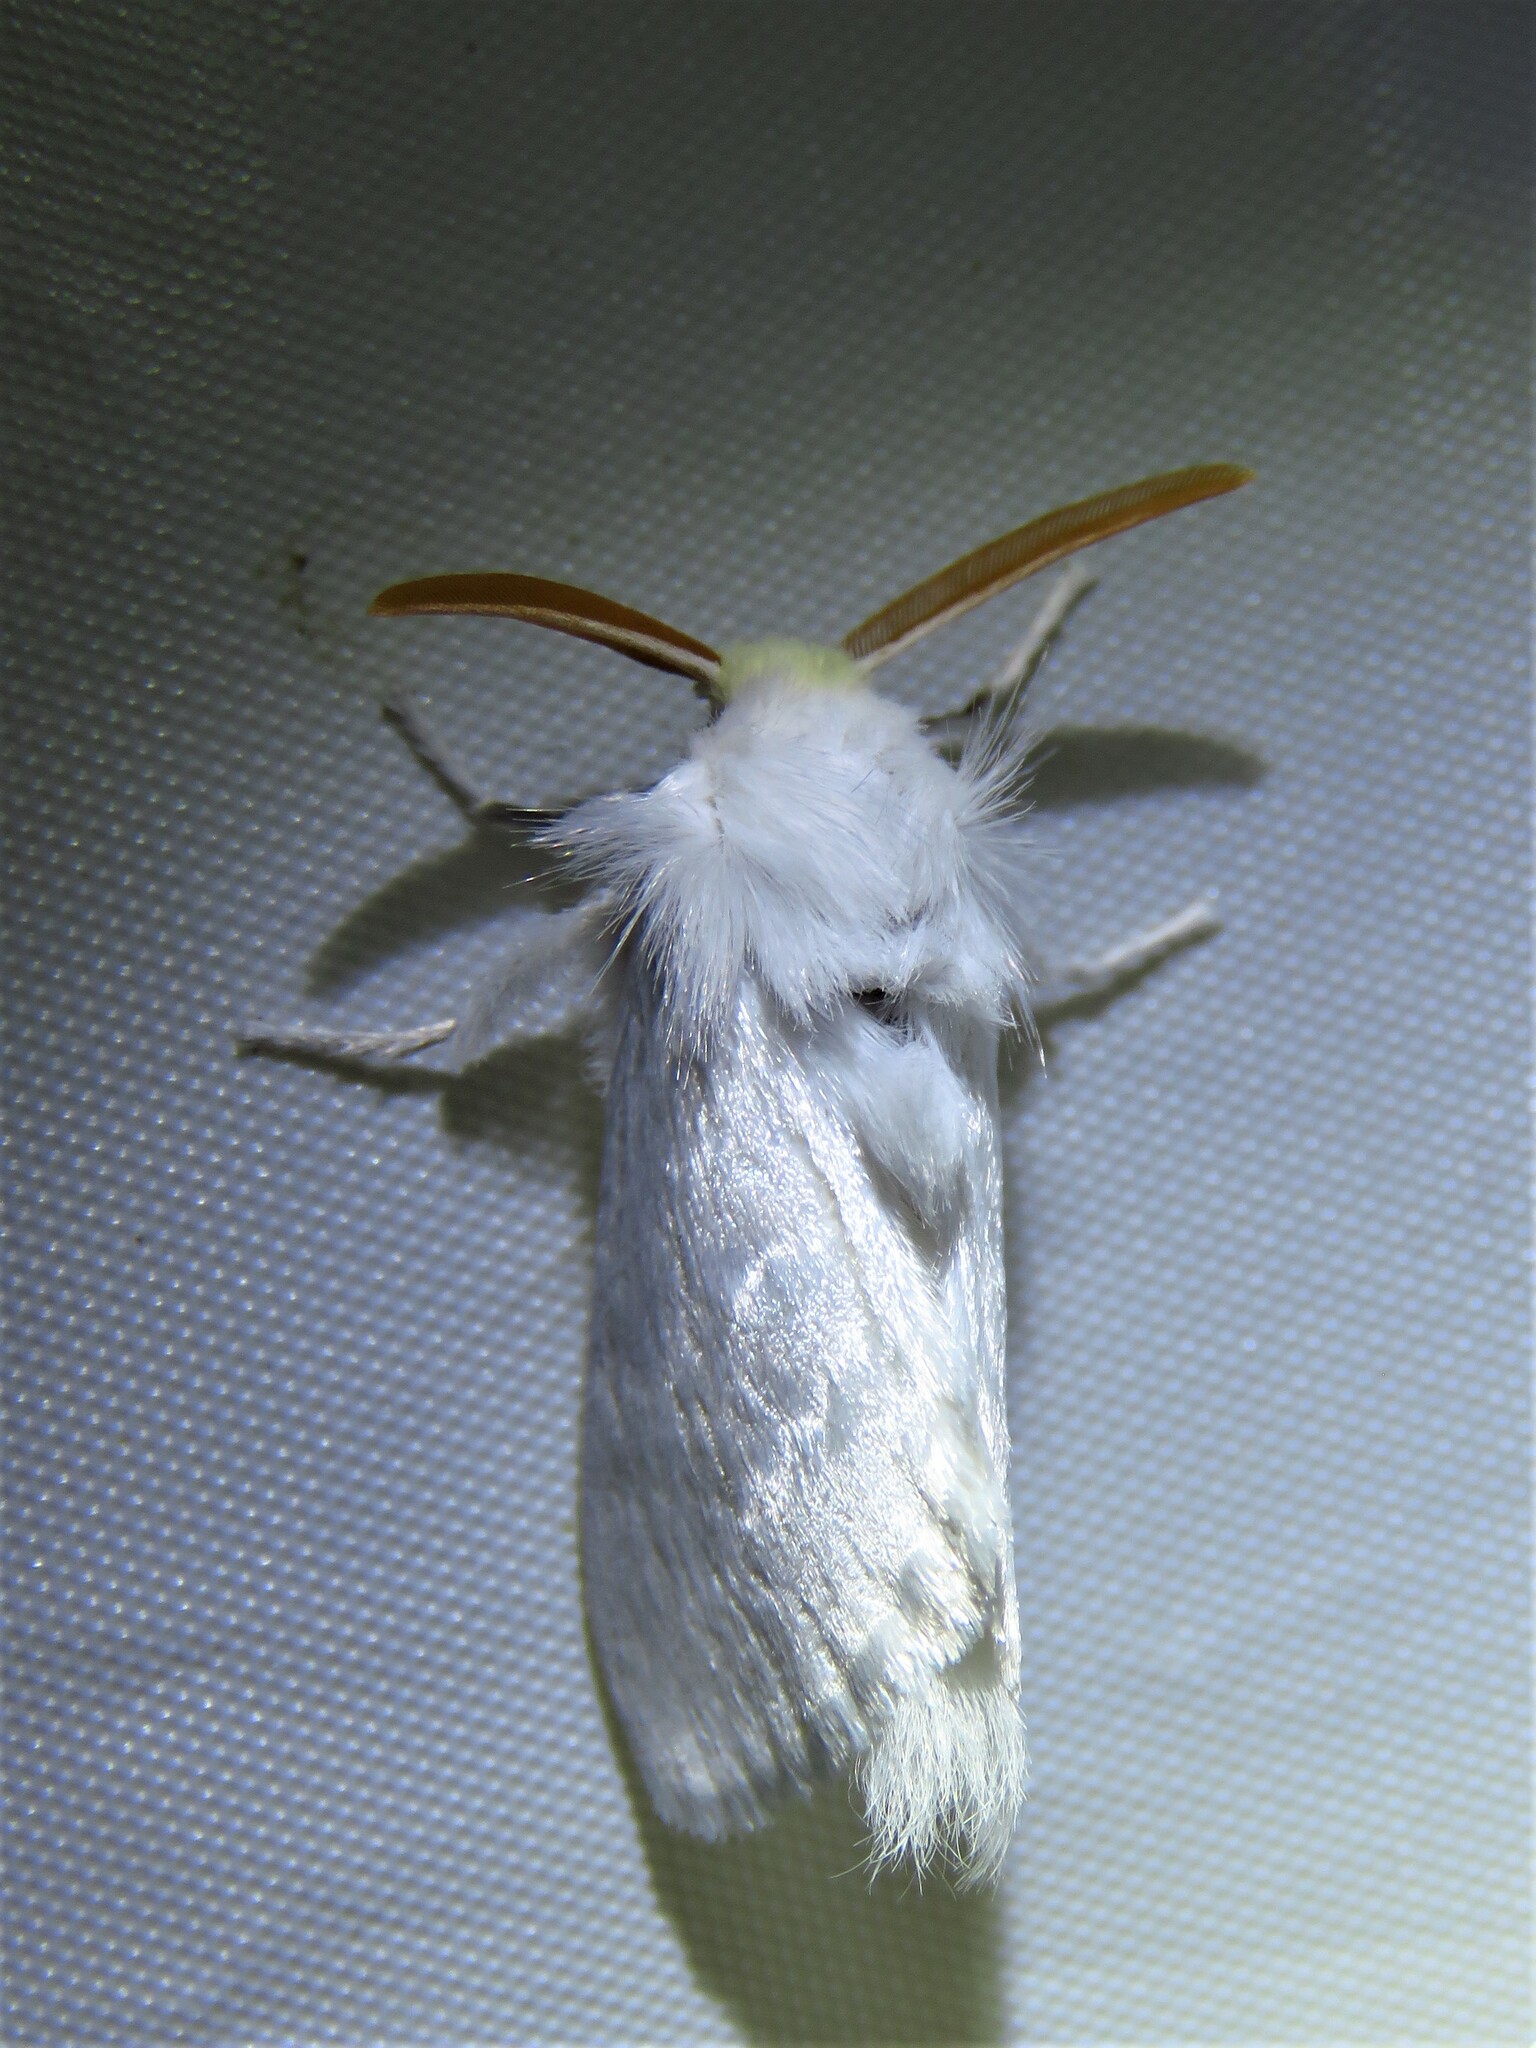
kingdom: Animalia
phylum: Arthropoda
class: Insecta
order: Lepidoptera
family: Megalopygidae
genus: Norape
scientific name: Norape cretata
